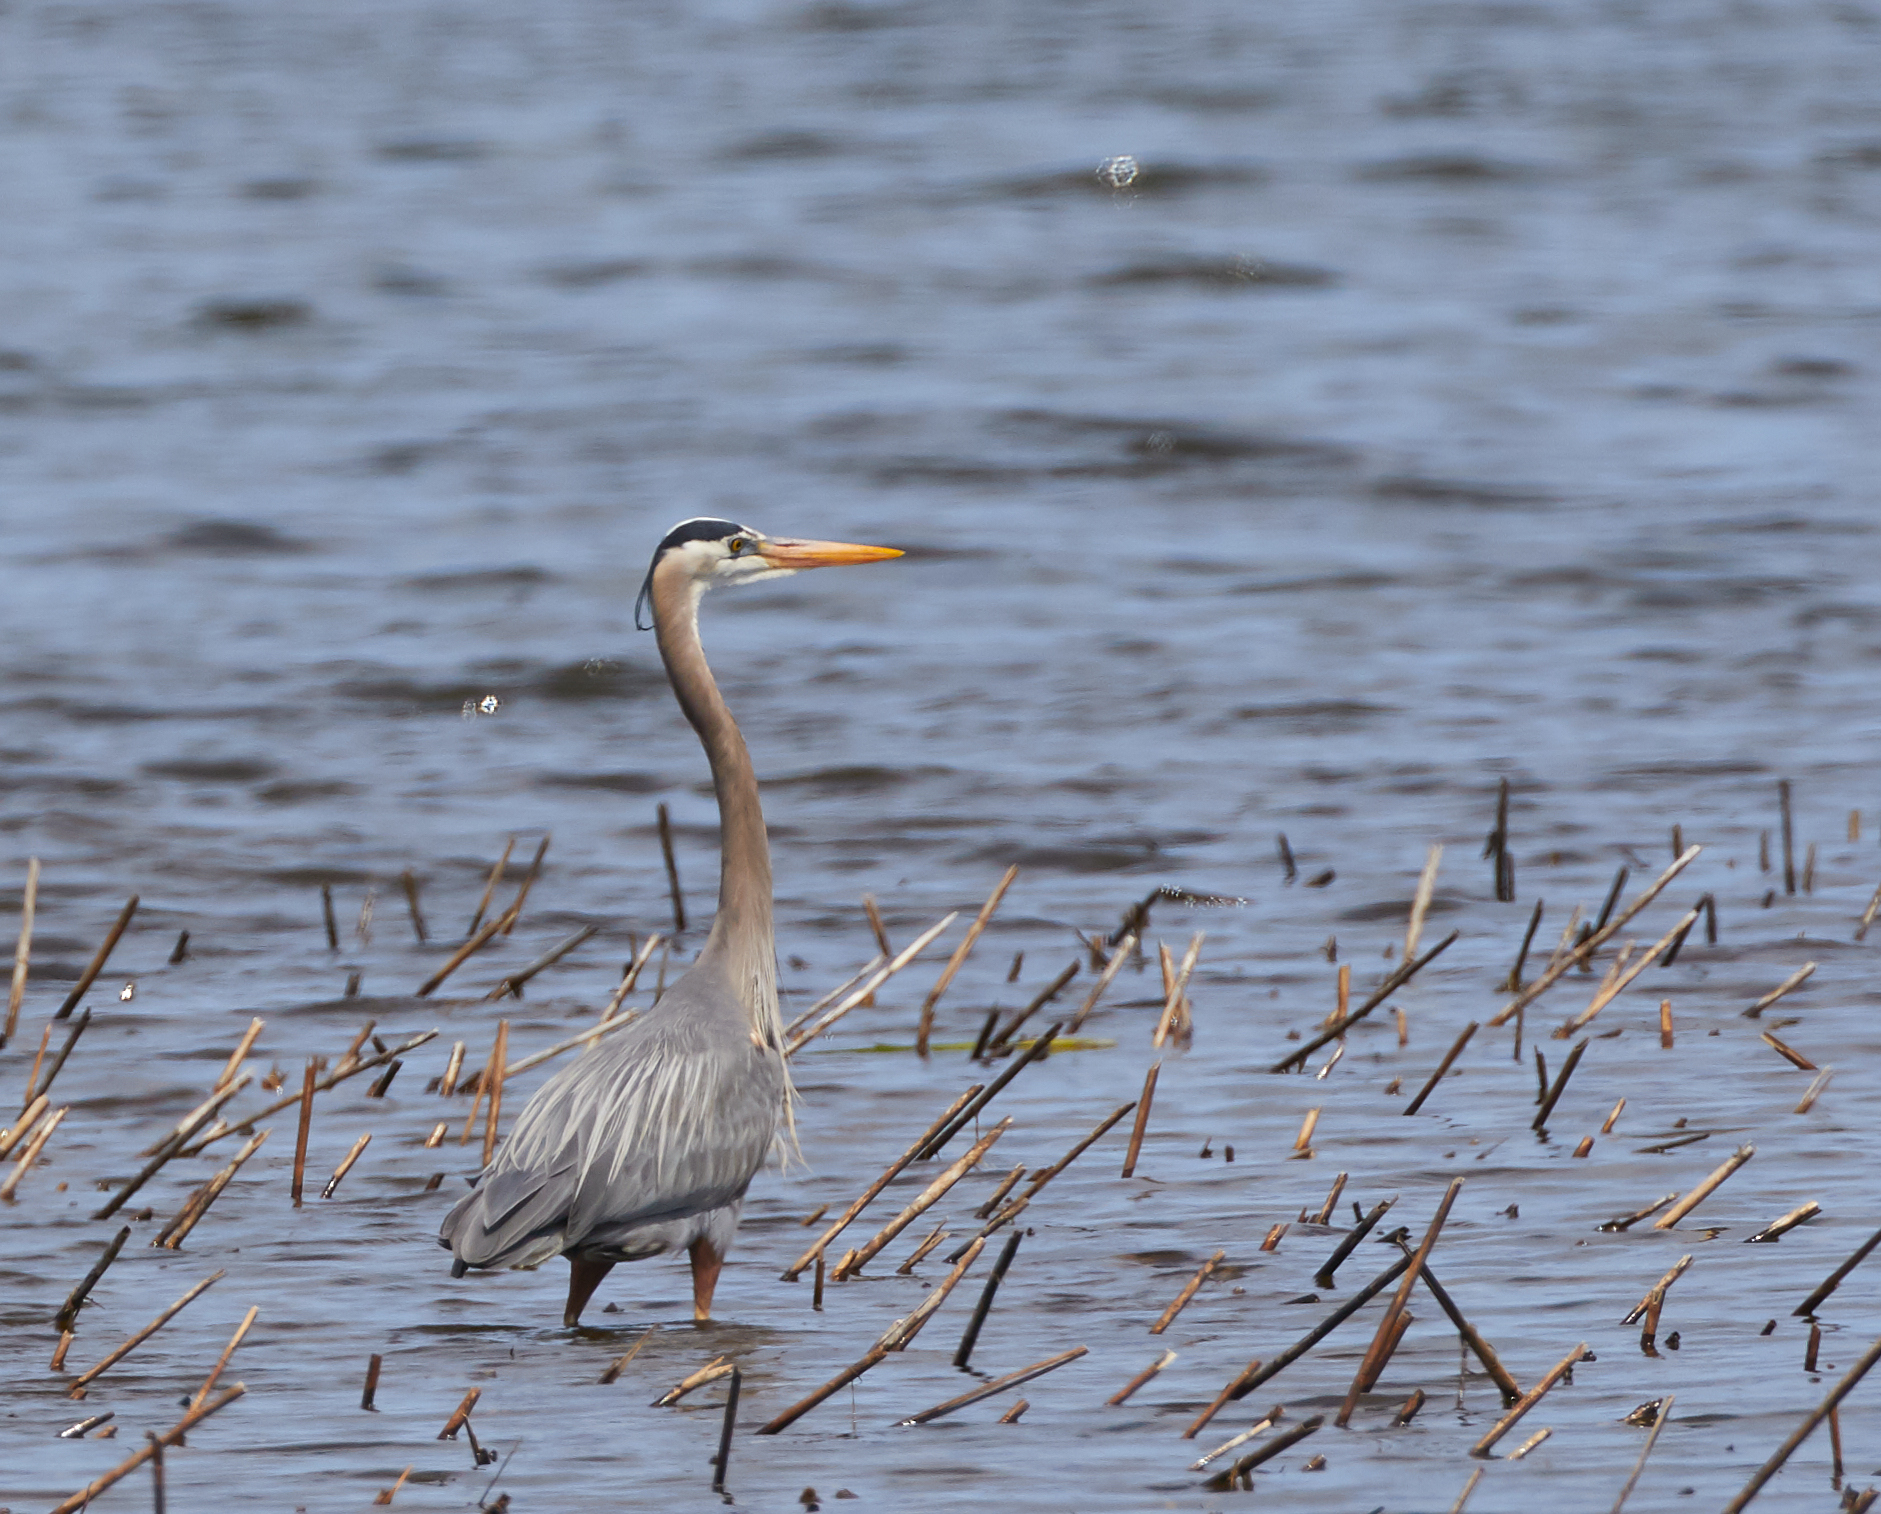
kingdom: Animalia
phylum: Chordata
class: Aves
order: Pelecaniformes
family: Ardeidae
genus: Ardea
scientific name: Ardea herodias
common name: Great blue heron
